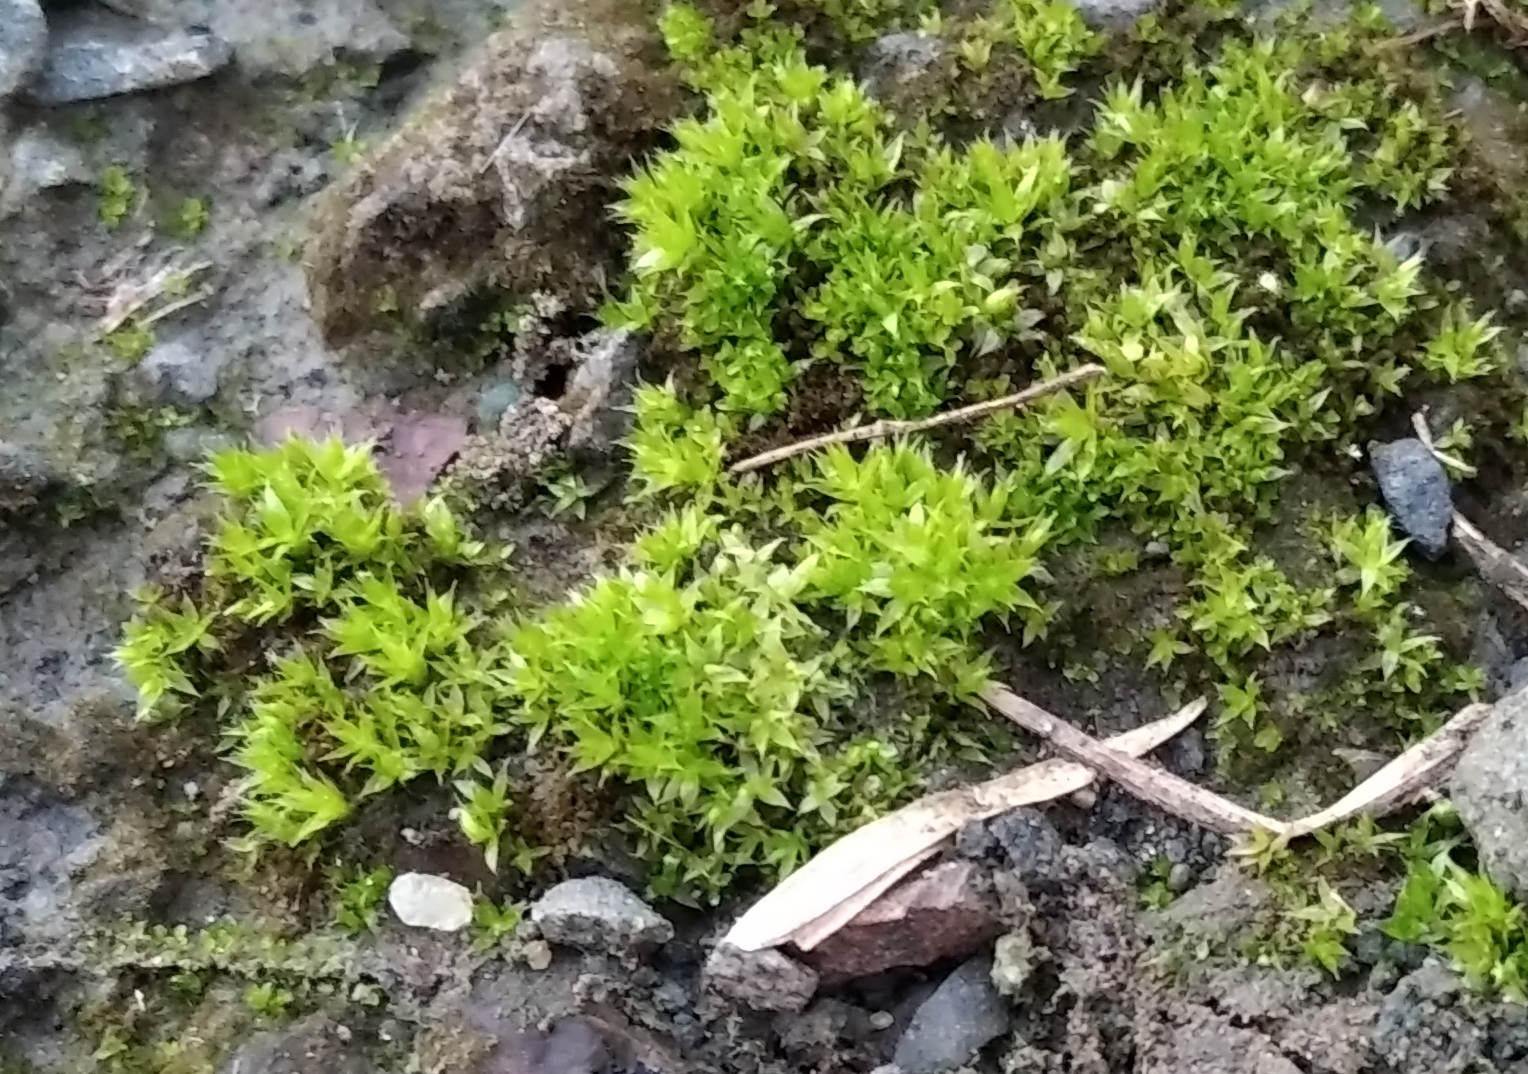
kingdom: Plantae
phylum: Bryophyta
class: Bryopsida
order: Pottiales
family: Pottiaceae
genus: Syntrichia
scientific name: Syntrichia ruralis
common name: Sidewalk screw moss
